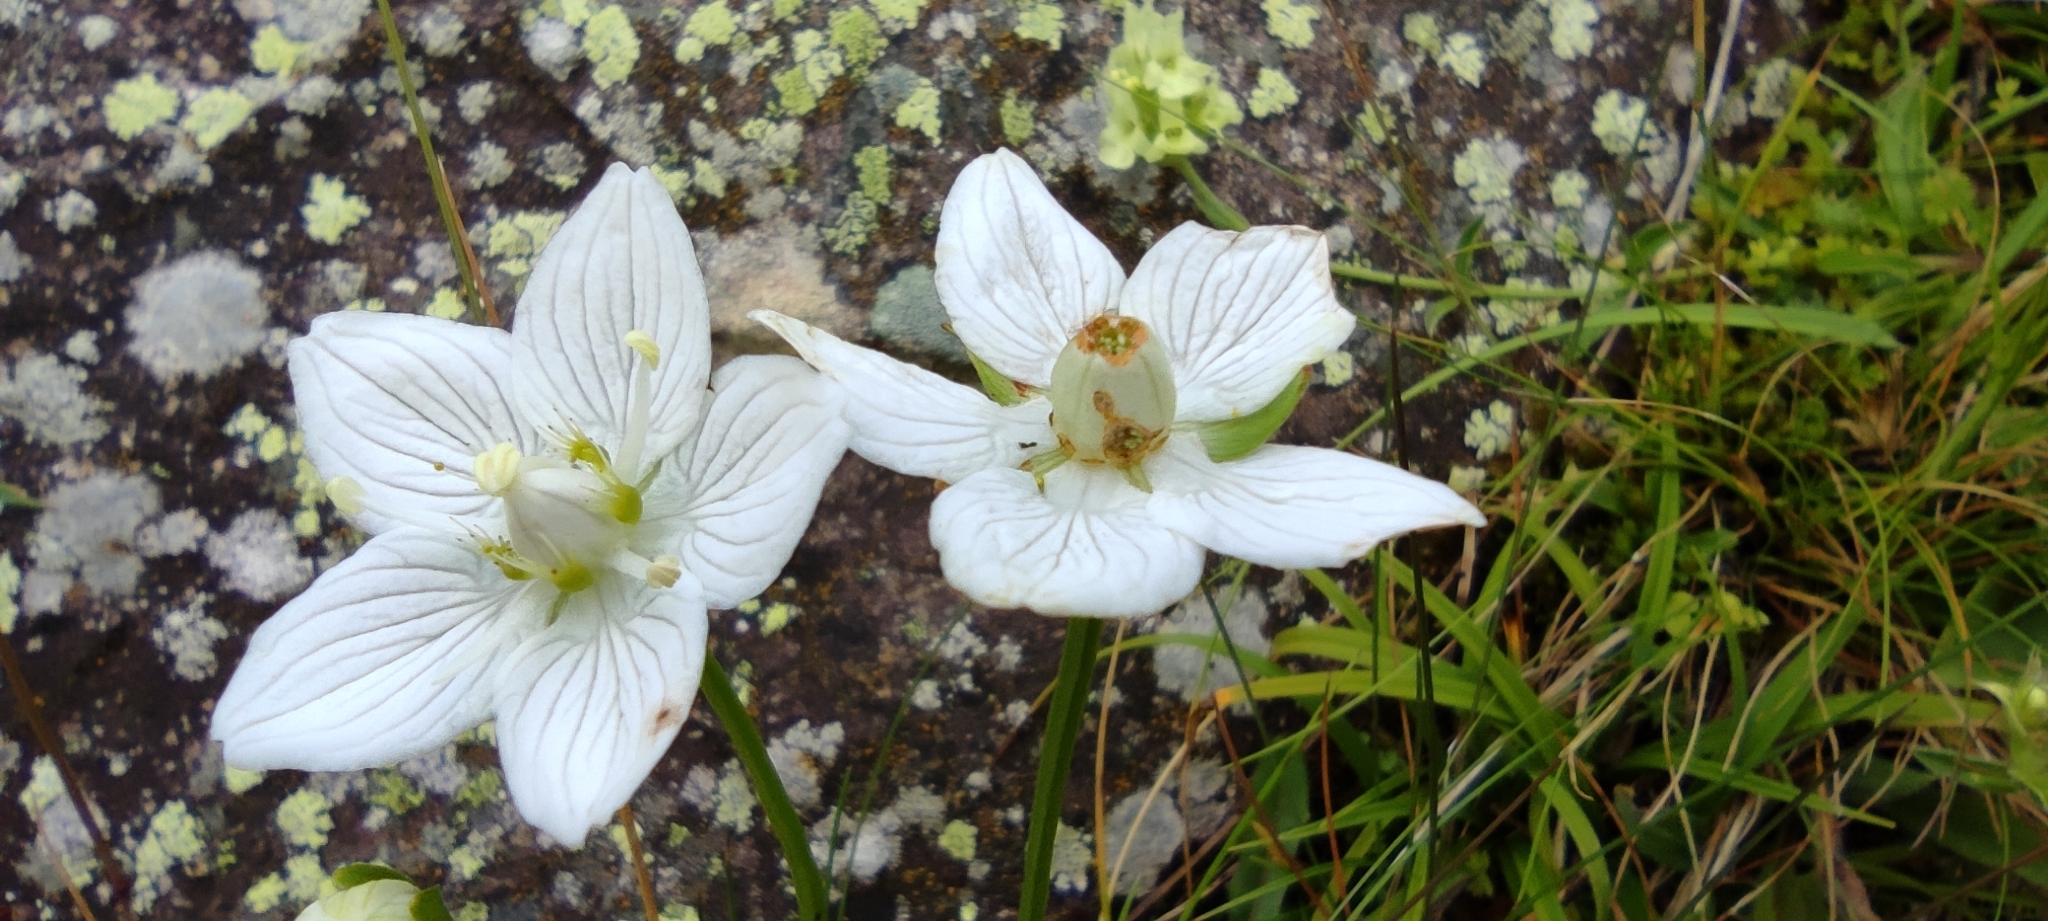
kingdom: Plantae
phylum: Tracheophyta
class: Magnoliopsida
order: Celastrales
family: Parnassiaceae
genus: Parnassia
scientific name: Parnassia palustris
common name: Grass-of-parnassus
